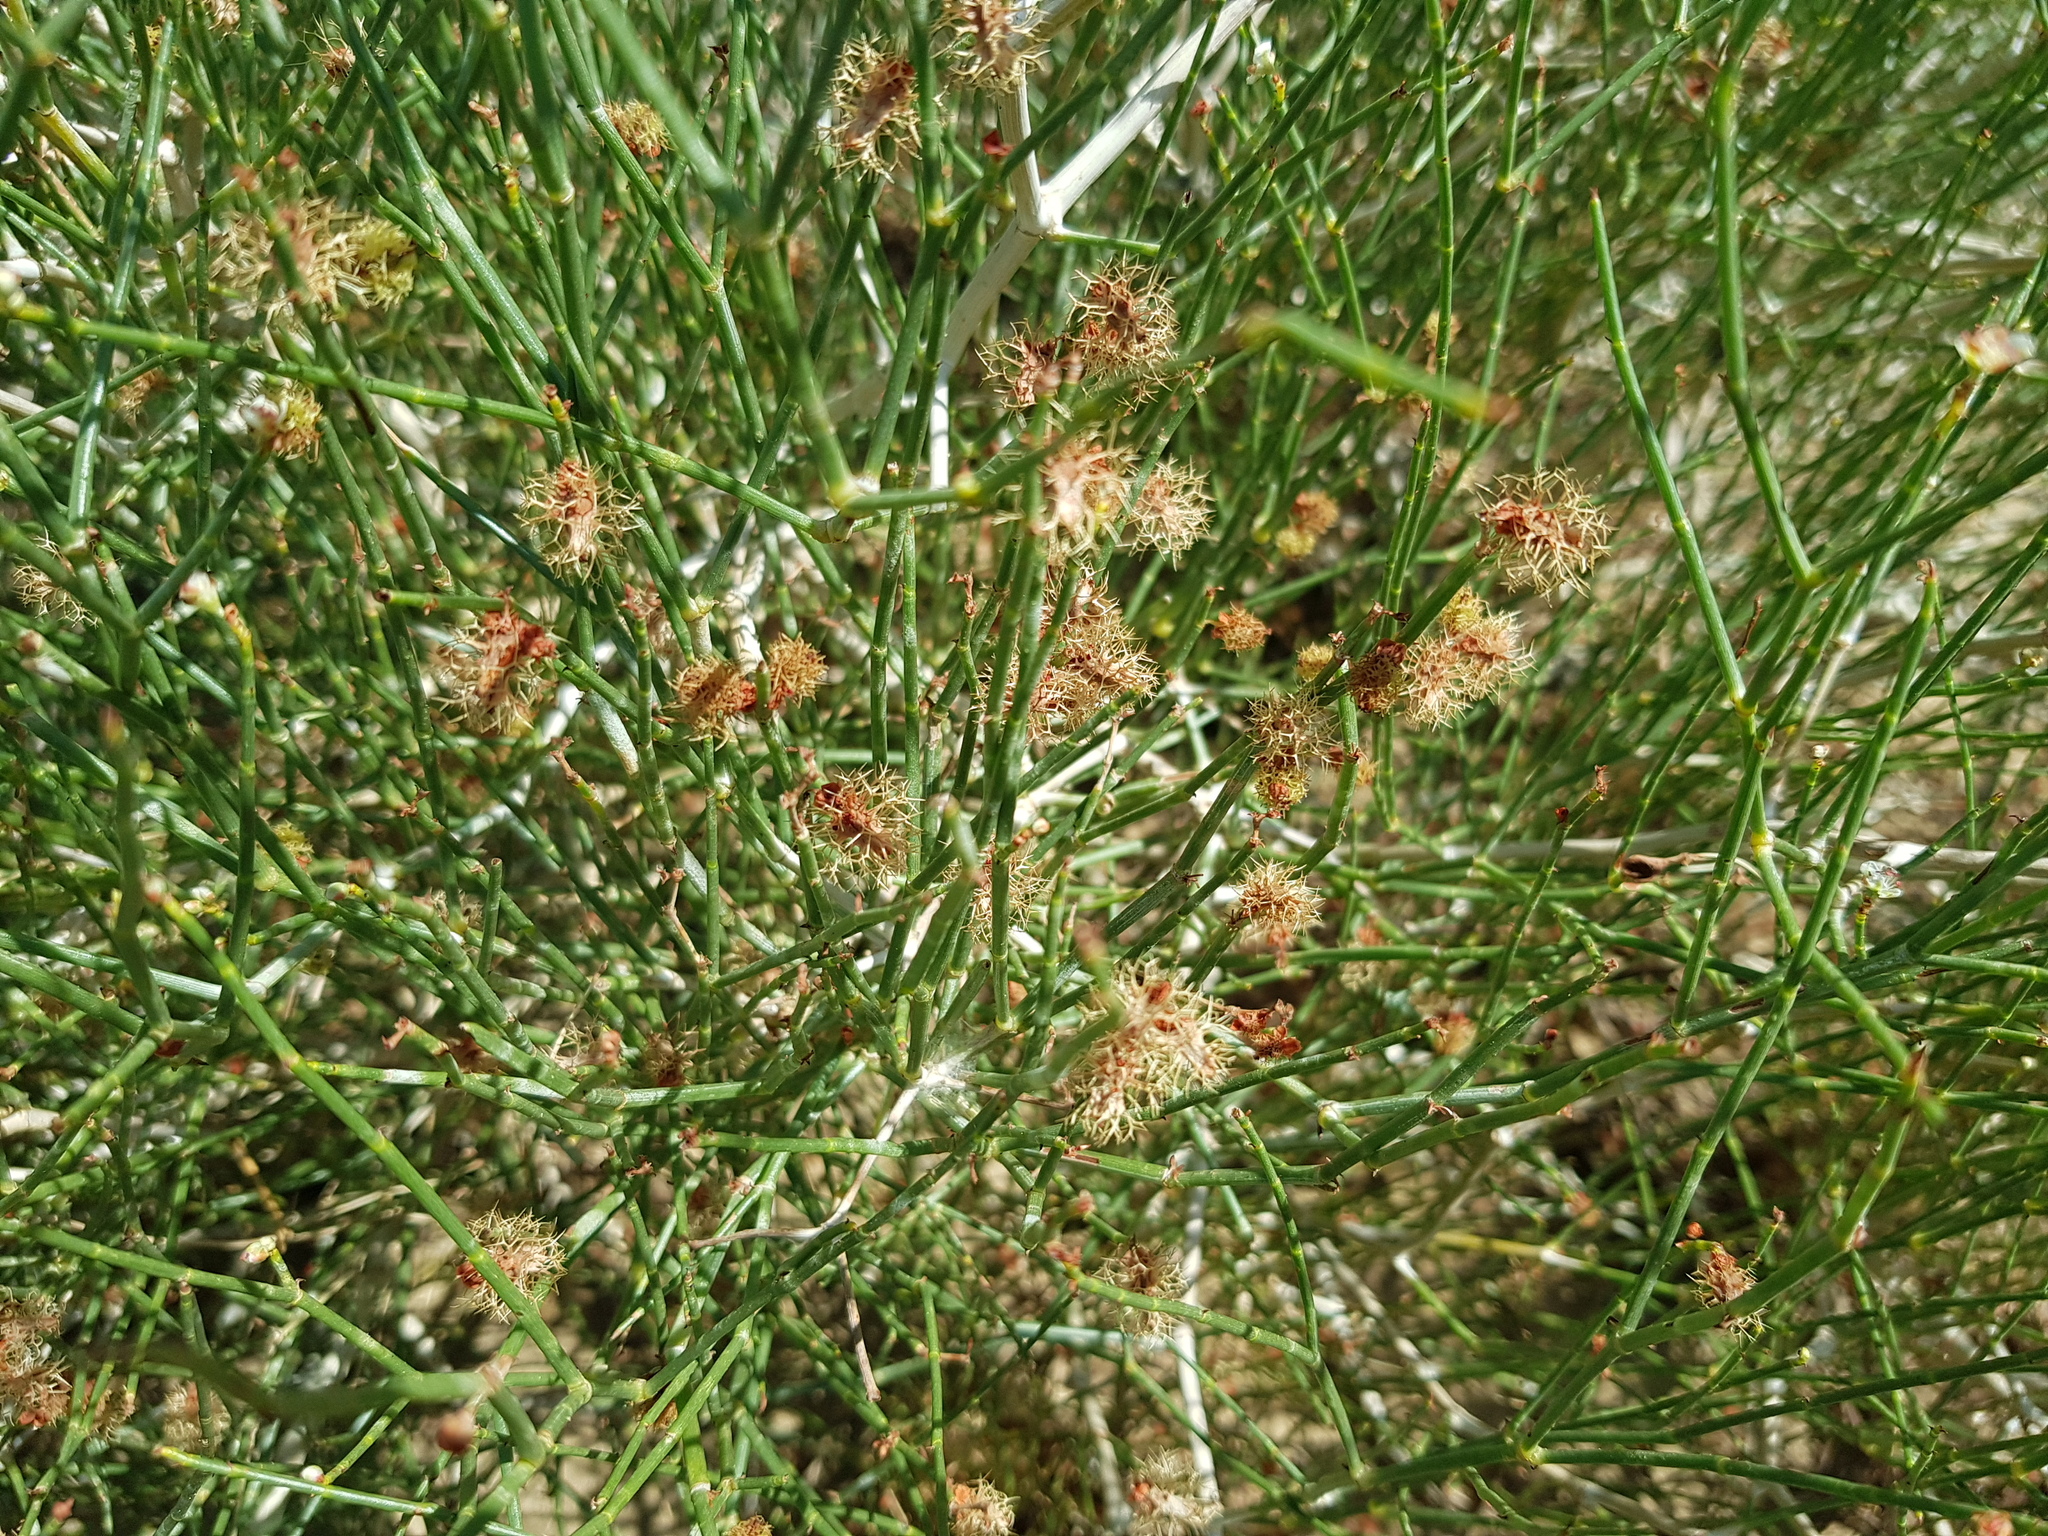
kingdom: Plantae
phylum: Tracheophyta
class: Magnoliopsida
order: Caryophyllales
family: Polygonaceae
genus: Calligonum
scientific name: Calligonum mongolicum
